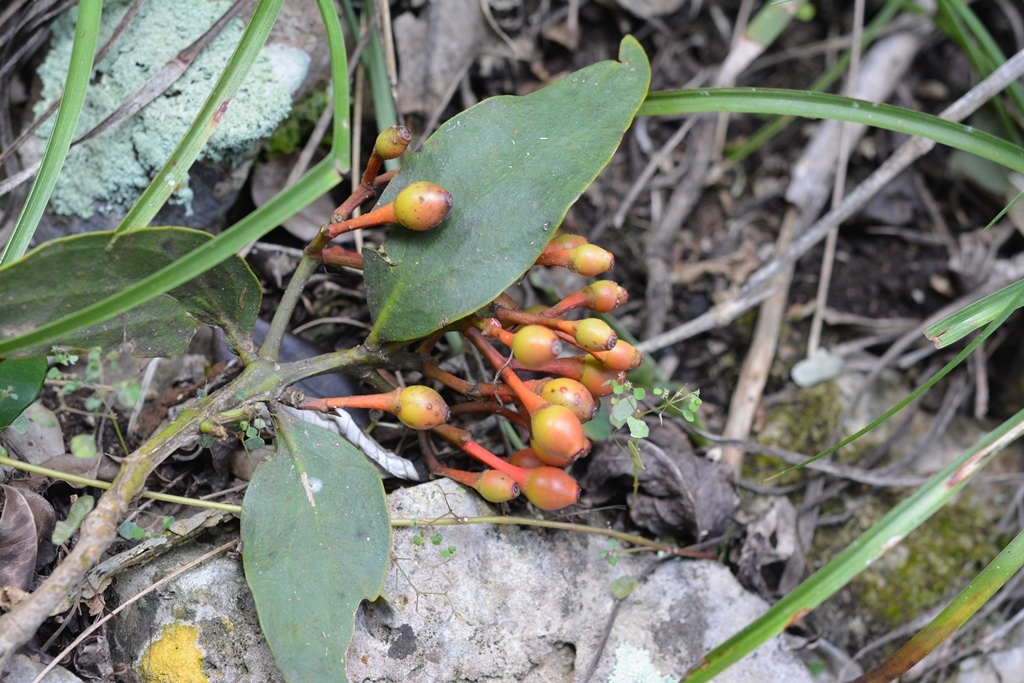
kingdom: Plantae
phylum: Tracheophyta
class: Magnoliopsida
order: Santalales
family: Loranthaceae
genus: Psittacanthus
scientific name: Psittacanthus rhynchanthus
